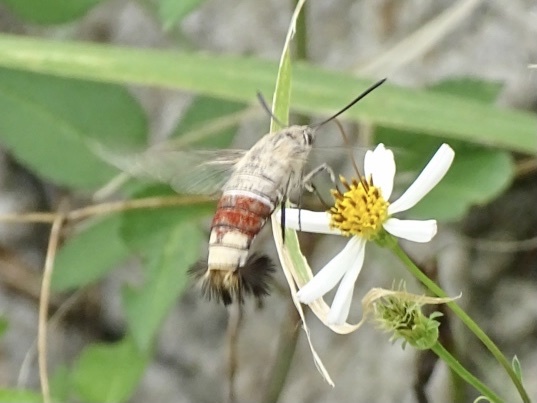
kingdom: Animalia
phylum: Arthropoda
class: Insecta
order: Lepidoptera
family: Sphingidae
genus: Cephonodes
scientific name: Cephonodes hylas
